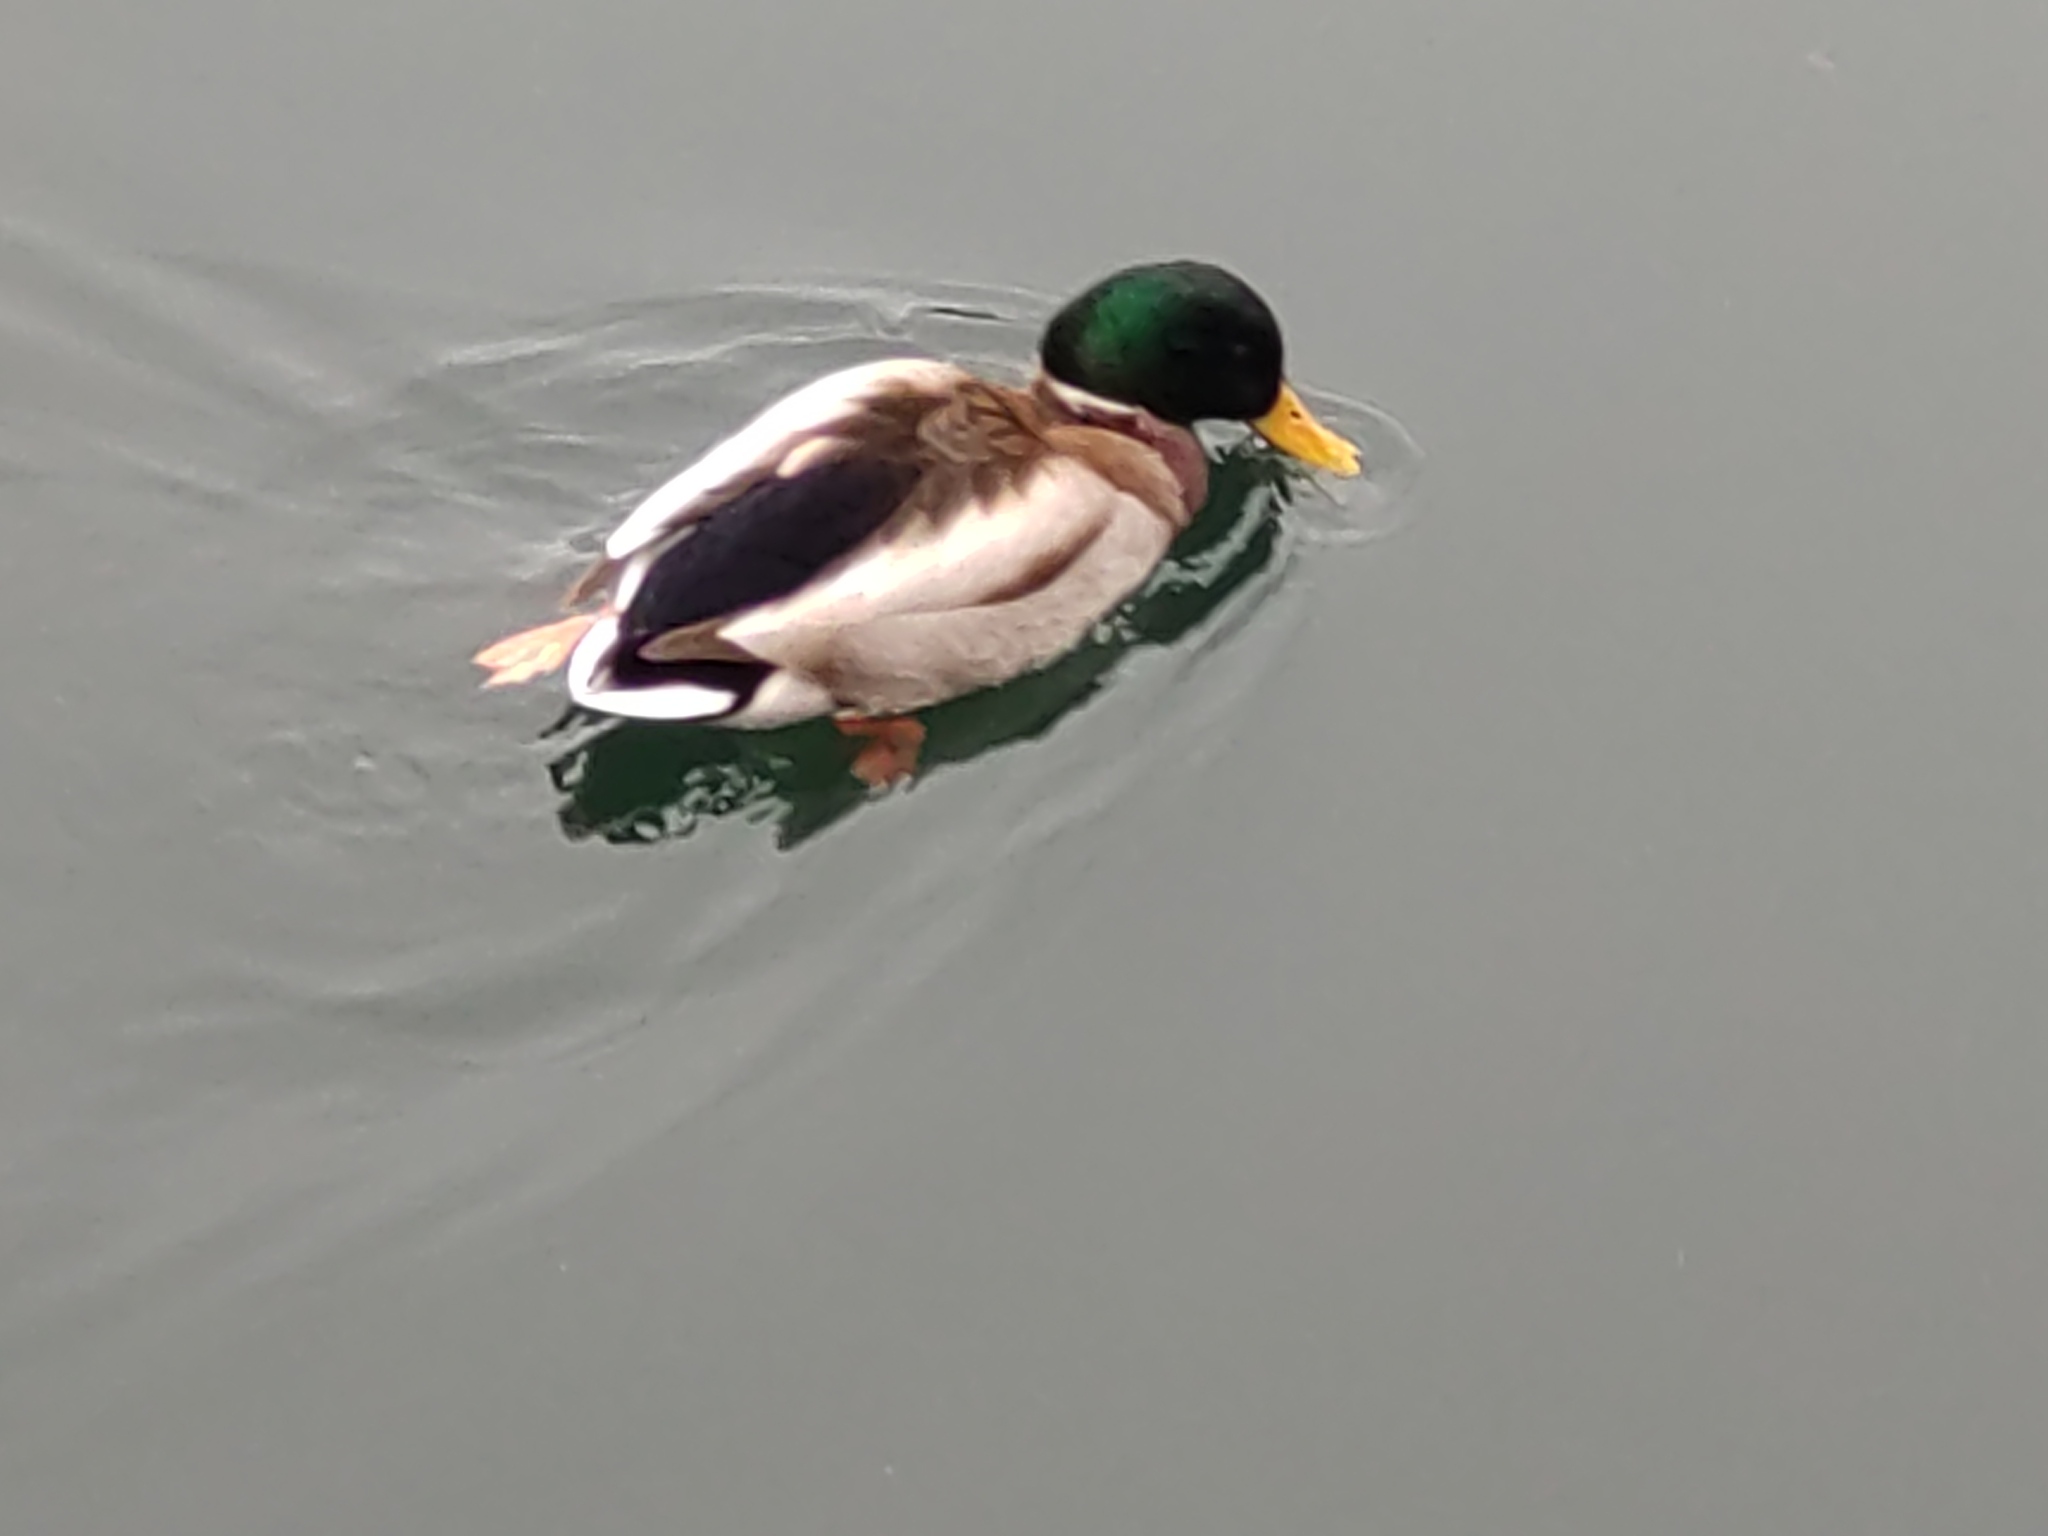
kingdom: Animalia
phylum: Chordata
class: Aves
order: Anseriformes
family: Anatidae
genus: Anas
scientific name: Anas platyrhynchos
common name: Mallard
